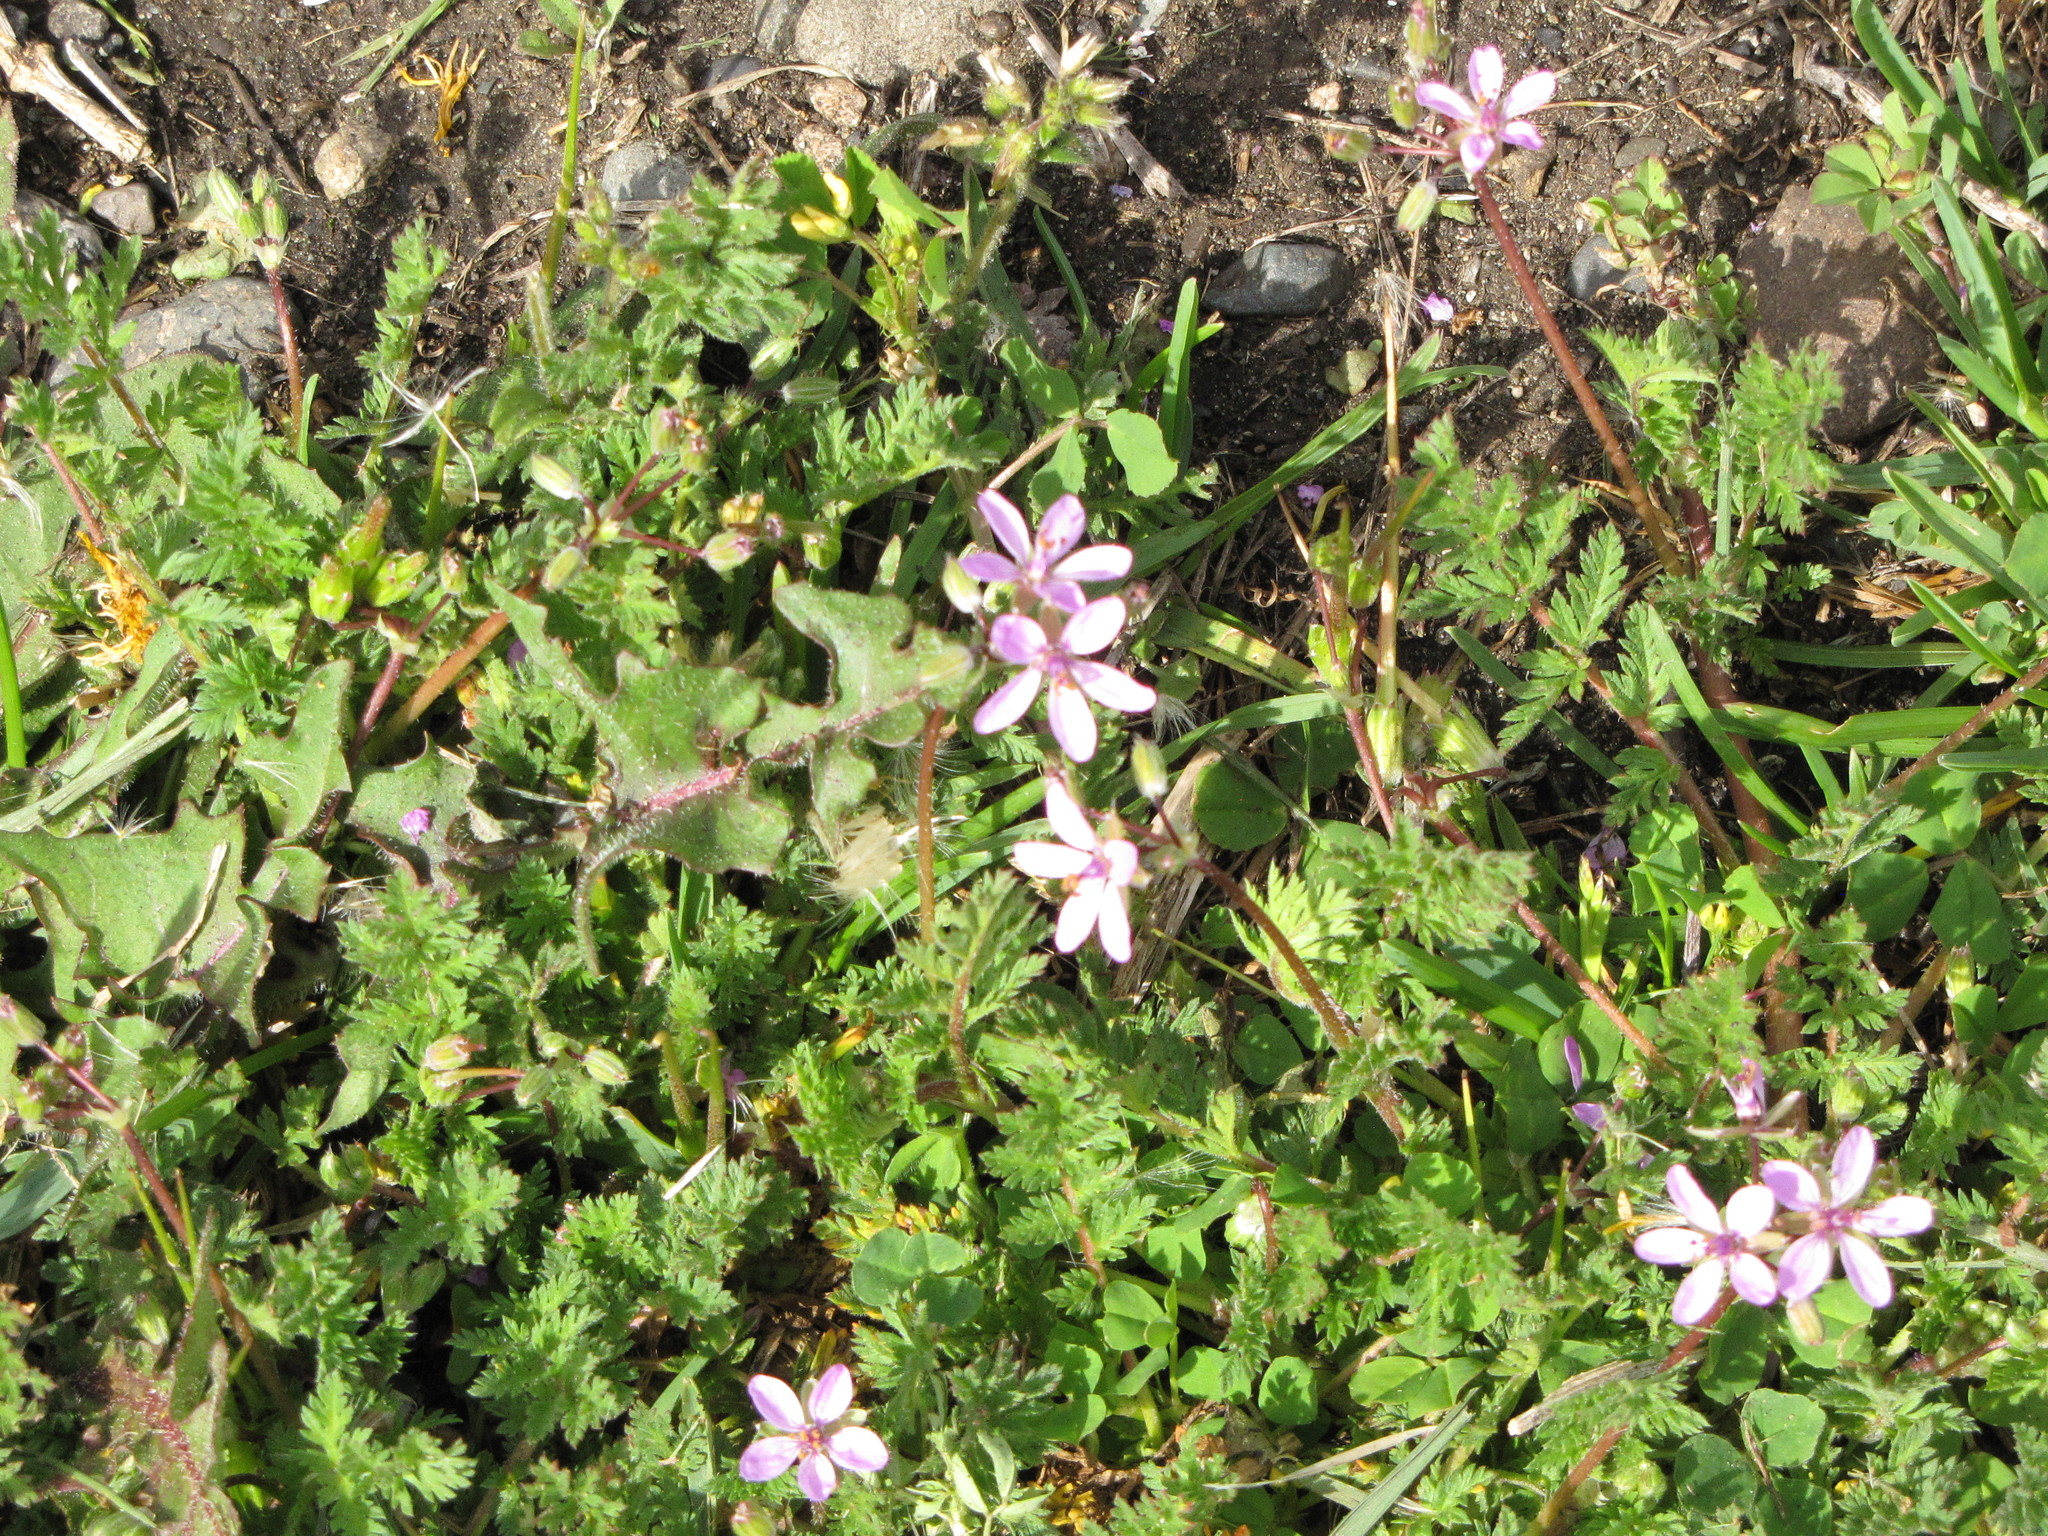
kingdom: Plantae
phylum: Tracheophyta
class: Magnoliopsida
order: Geraniales
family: Geraniaceae
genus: Erodium
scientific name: Erodium cicutarium
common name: Common stork's-bill
